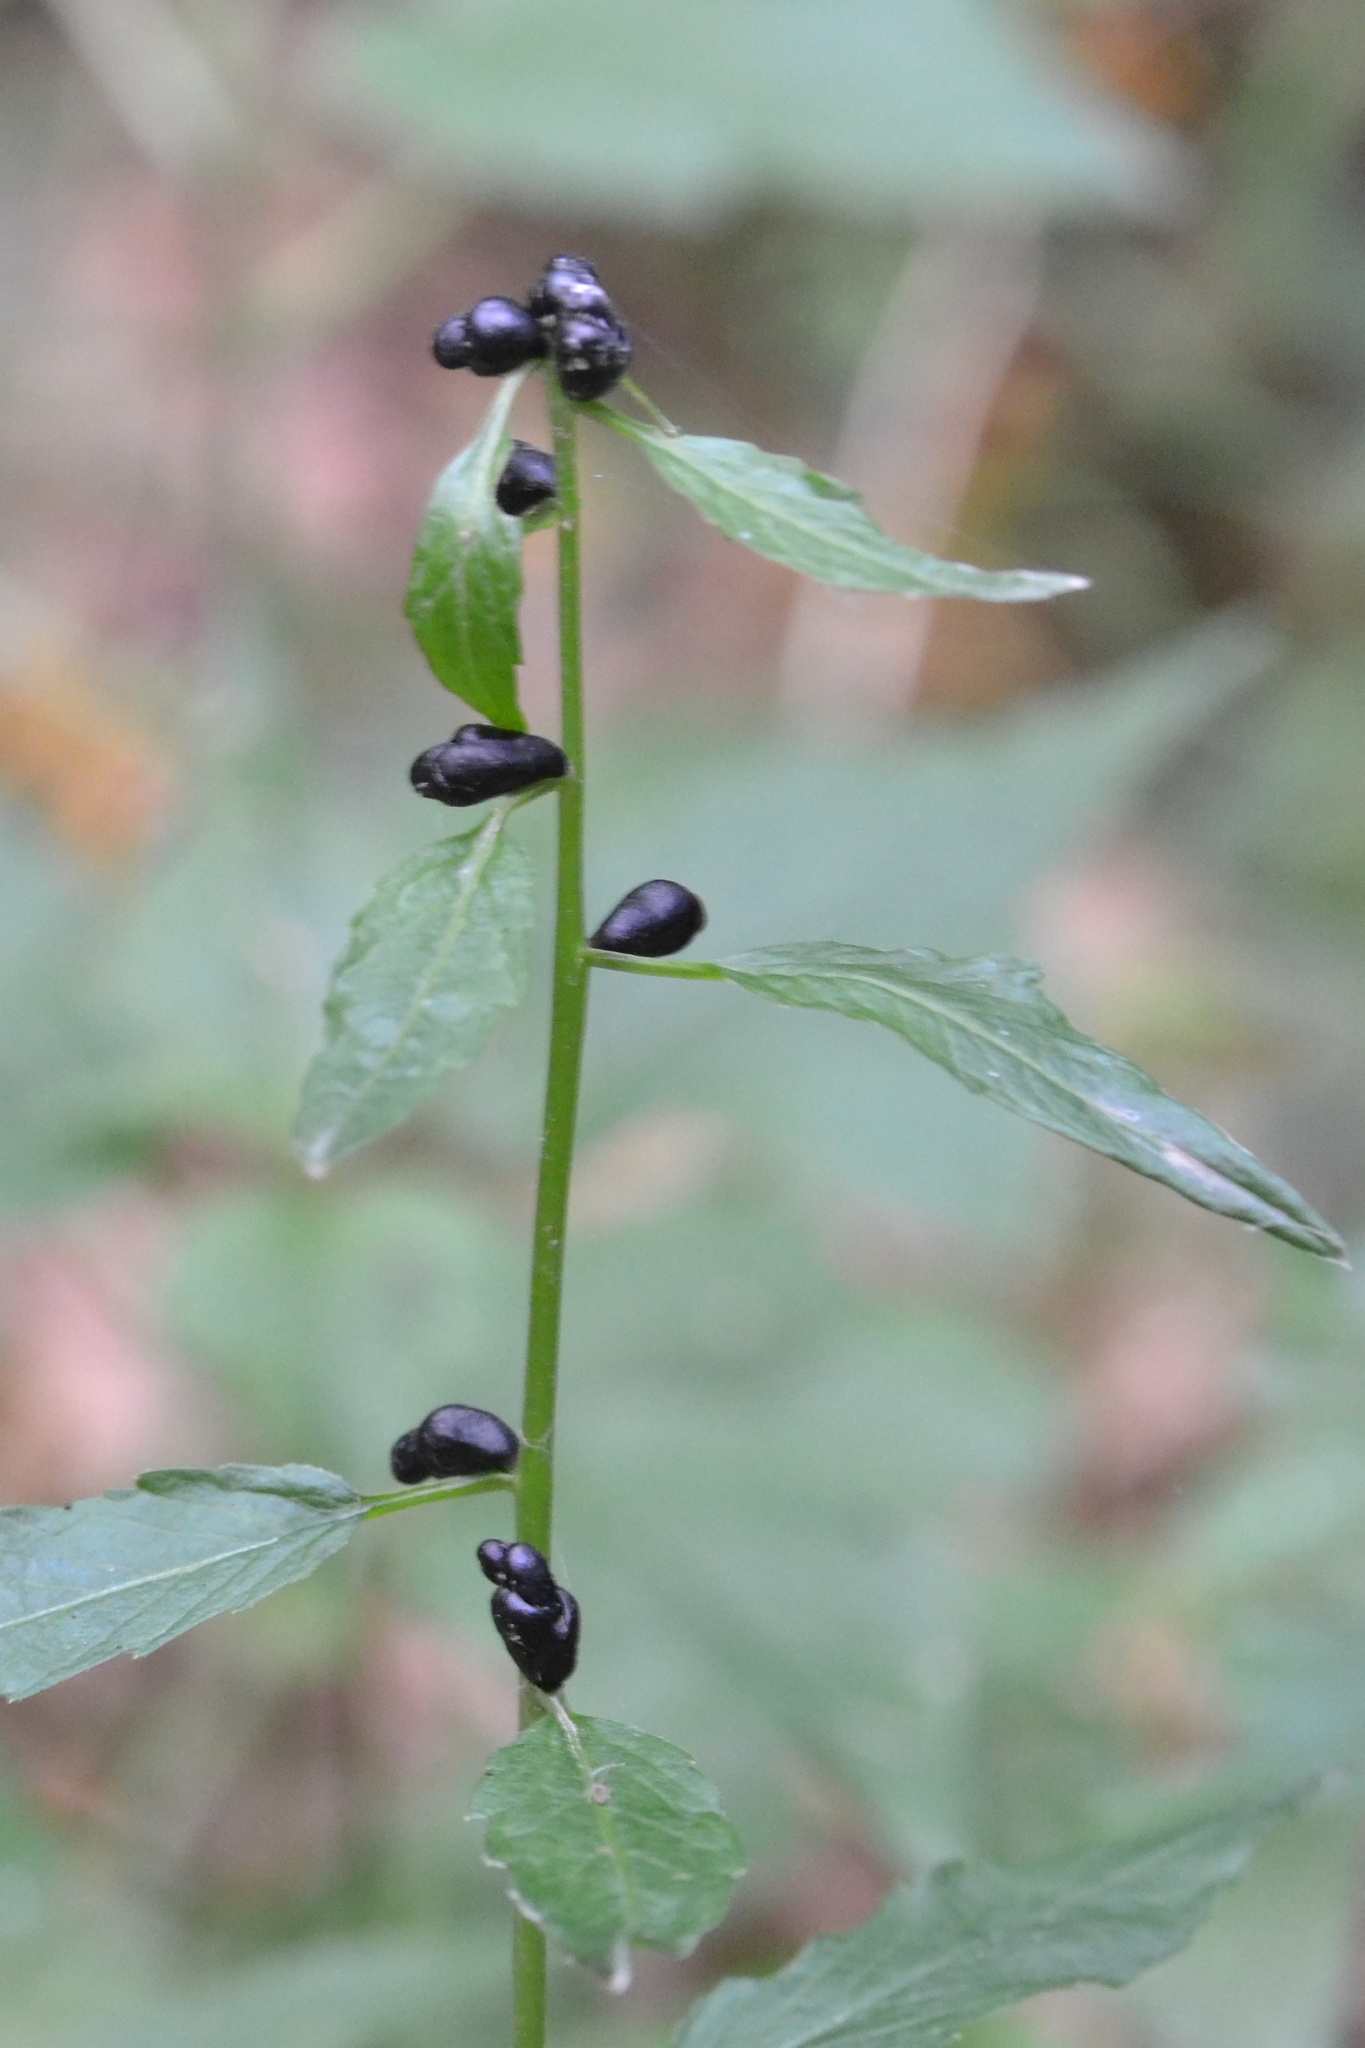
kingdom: Plantae
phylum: Tracheophyta
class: Magnoliopsida
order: Brassicales
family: Brassicaceae
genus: Cardamine
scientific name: Cardamine bulbifera
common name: Coralroot bittercress
